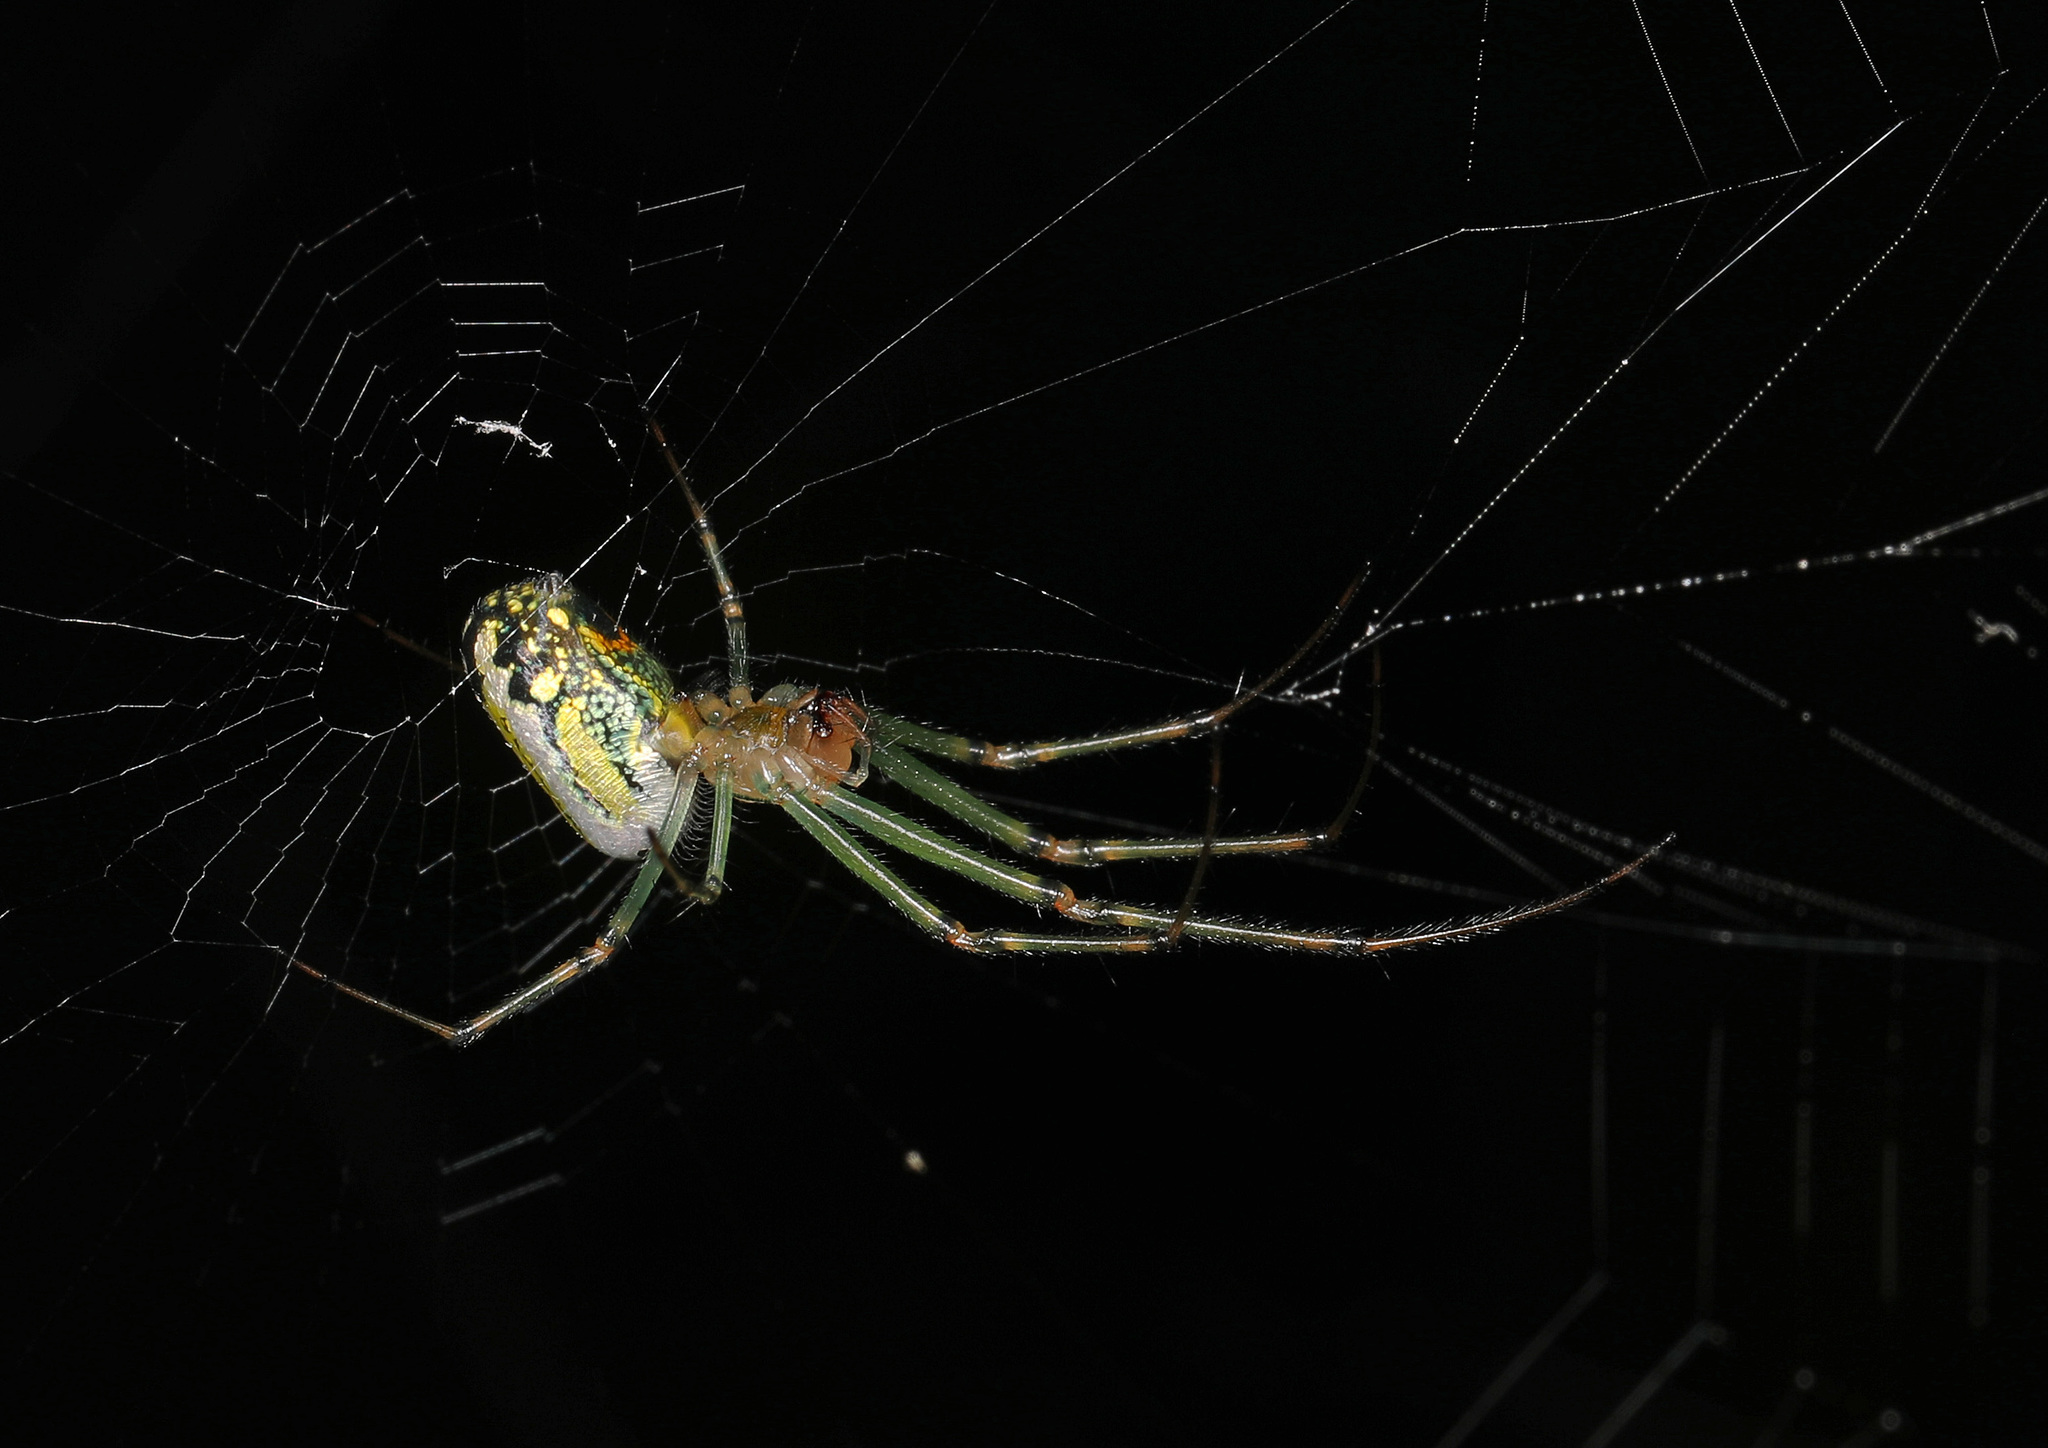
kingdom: Animalia
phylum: Arthropoda
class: Arachnida
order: Araneae
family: Tetragnathidae
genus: Leucauge
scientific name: Leucauge venusta
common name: Longjawed orb weavers
